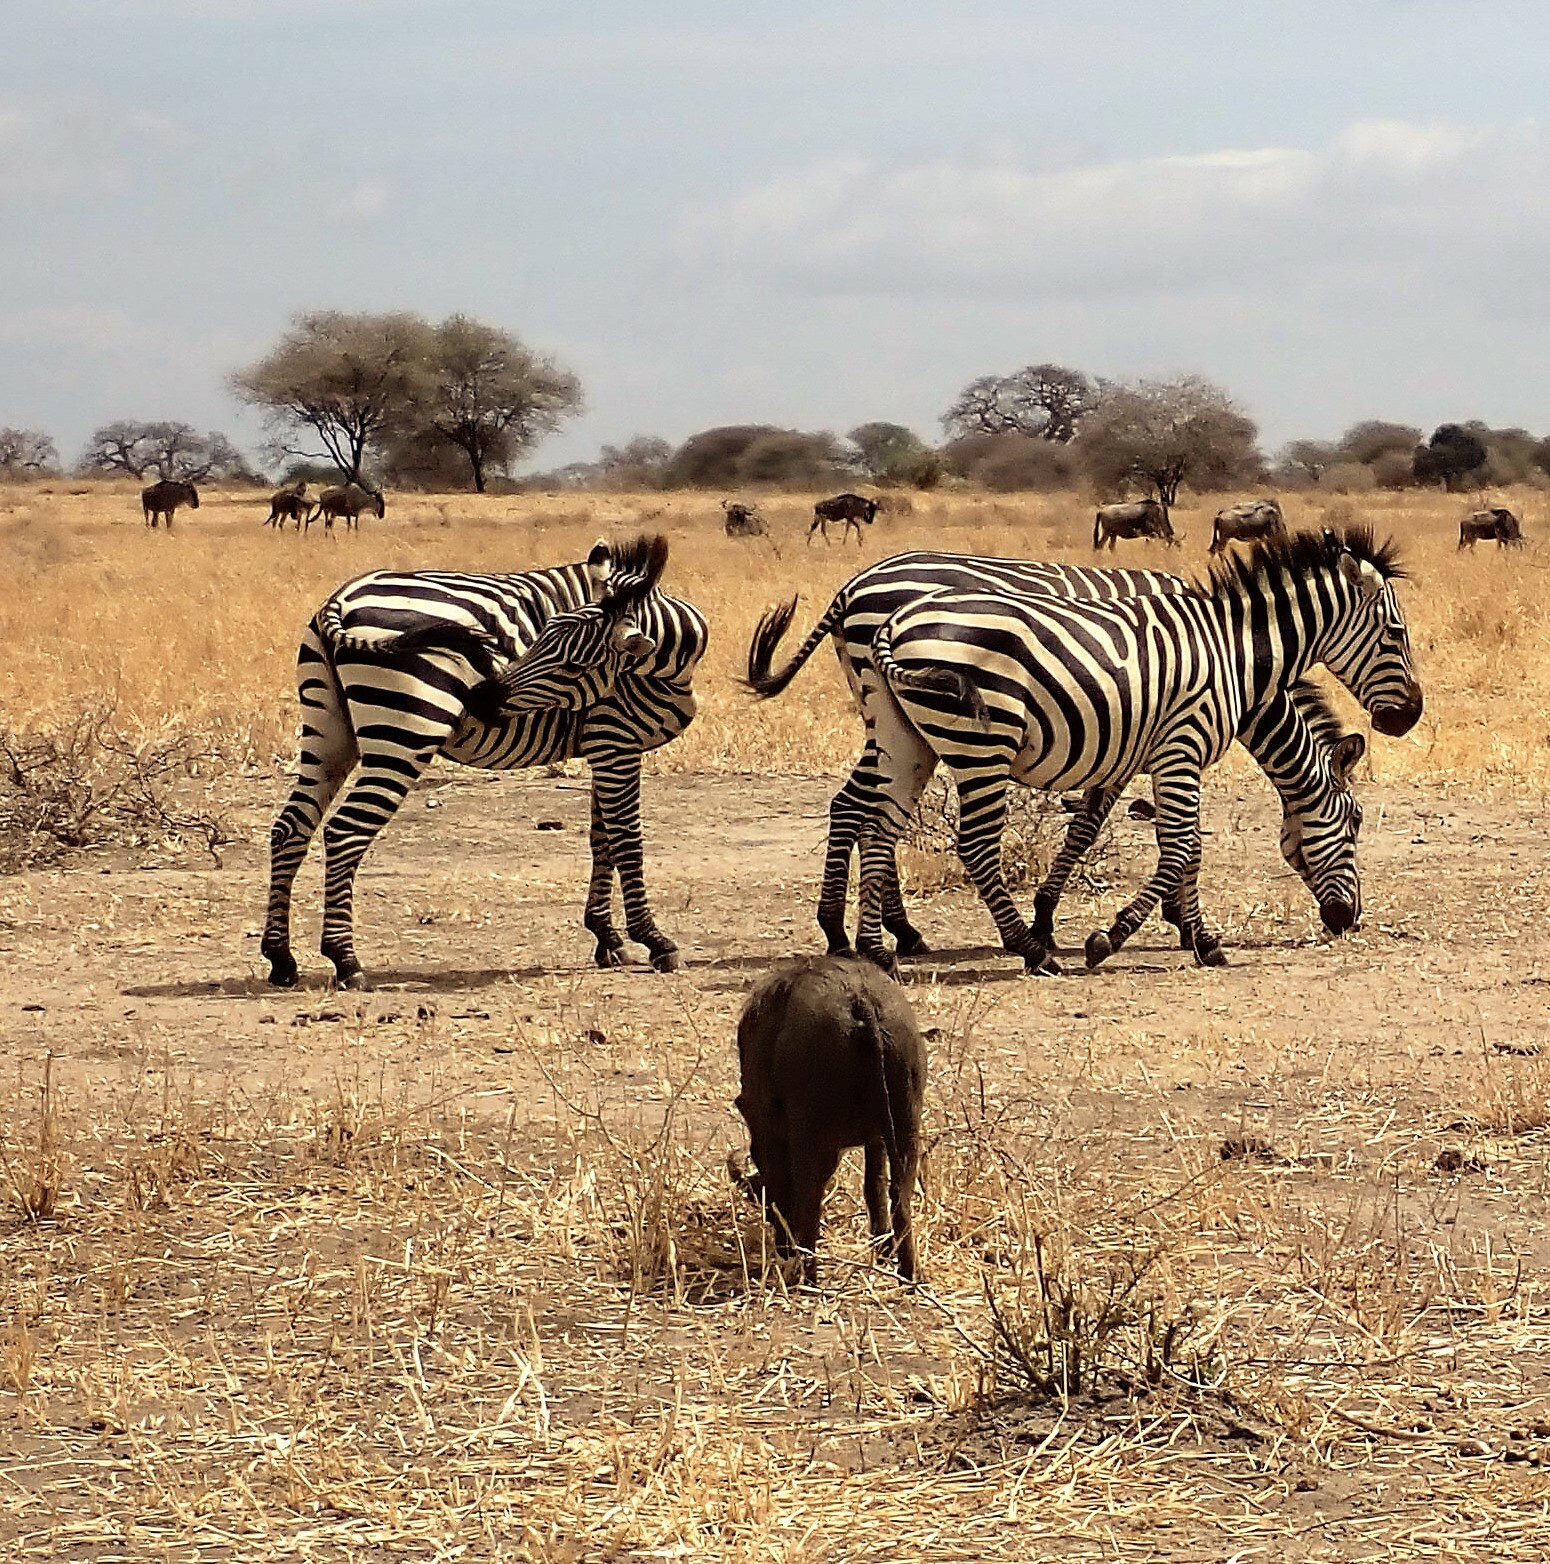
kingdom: Animalia
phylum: Chordata
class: Mammalia
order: Artiodactyla
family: Bovidae
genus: Connochaetes
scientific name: Connochaetes taurinus
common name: Blue wildebeest
